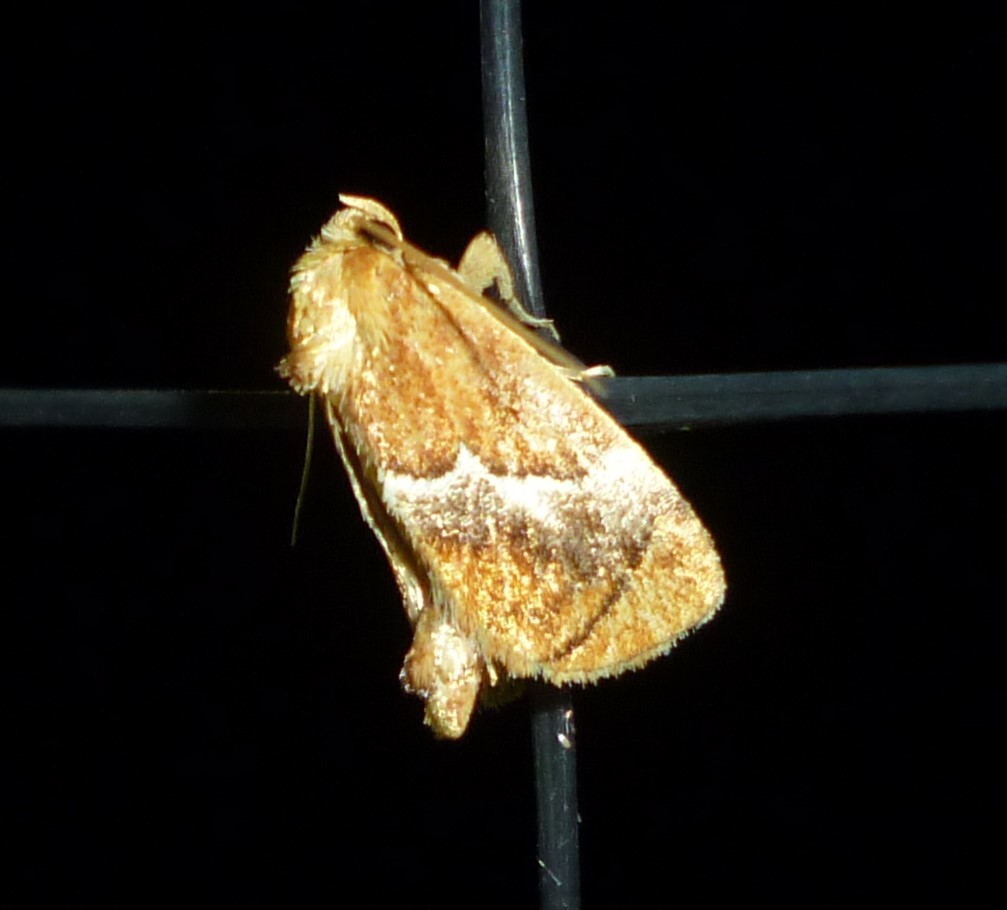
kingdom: Animalia
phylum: Arthropoda
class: Insecta
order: Lepidoptera
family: Limacodidae
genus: Lithacodes
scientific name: Lithacodes fasciola
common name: Yellow-shouldered slug moth
